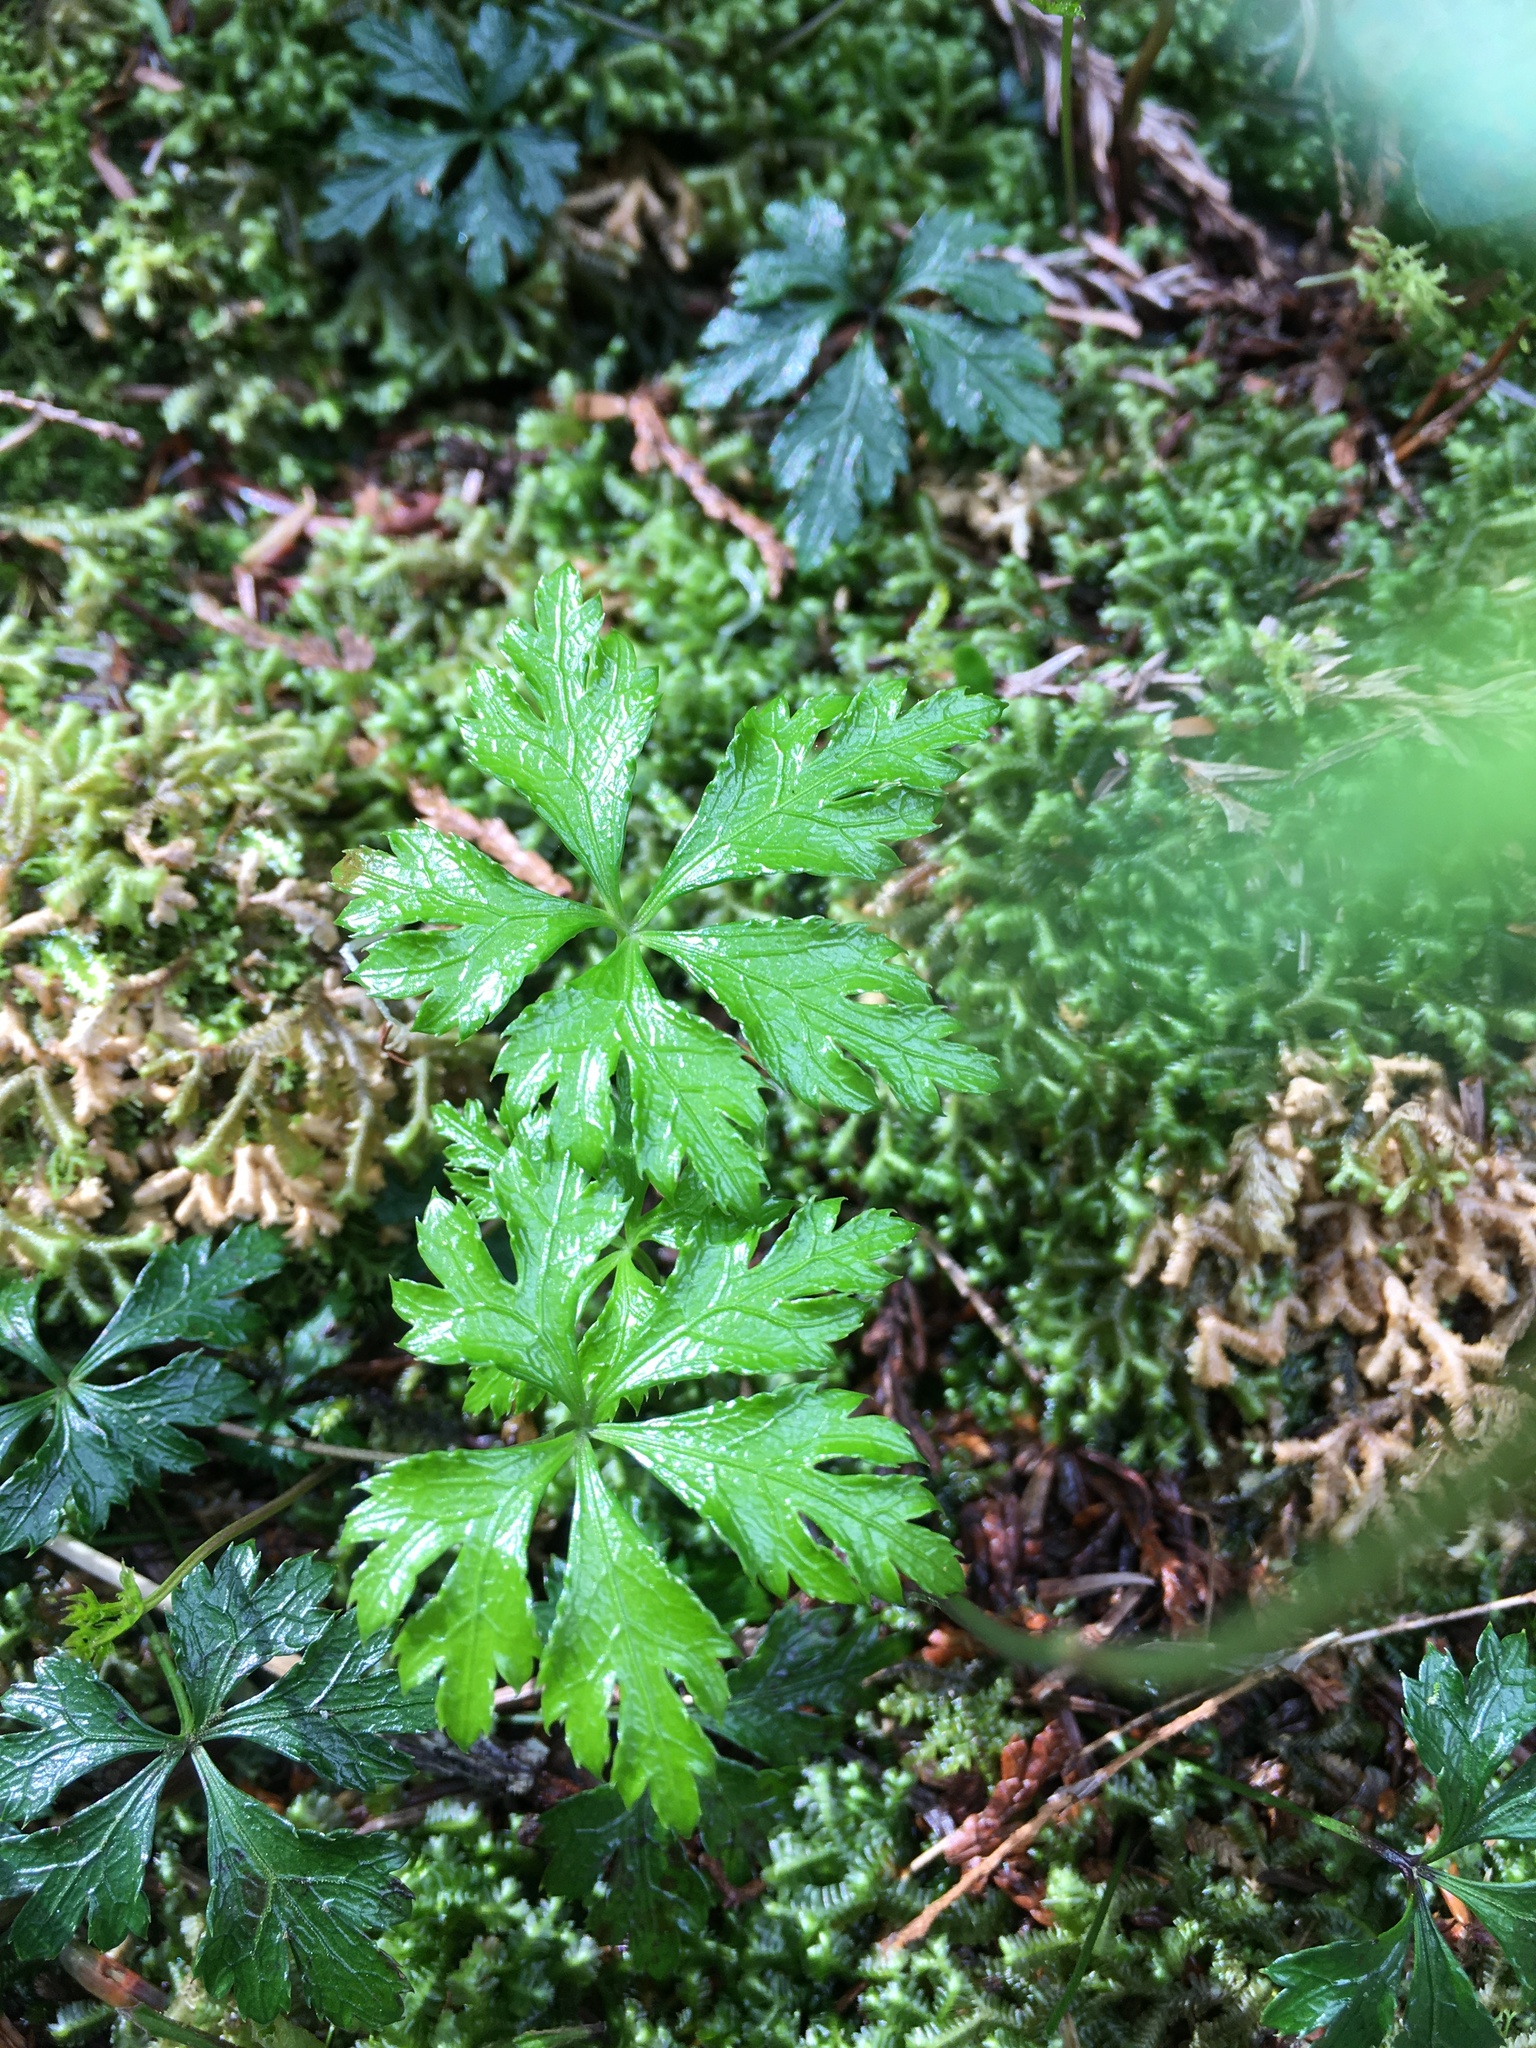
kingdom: Plantae
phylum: Tracheophyta
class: Magnoliopsida
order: Ranunculales
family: Ranunculaceae
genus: Coptis
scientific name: Coptis quinquefolia
